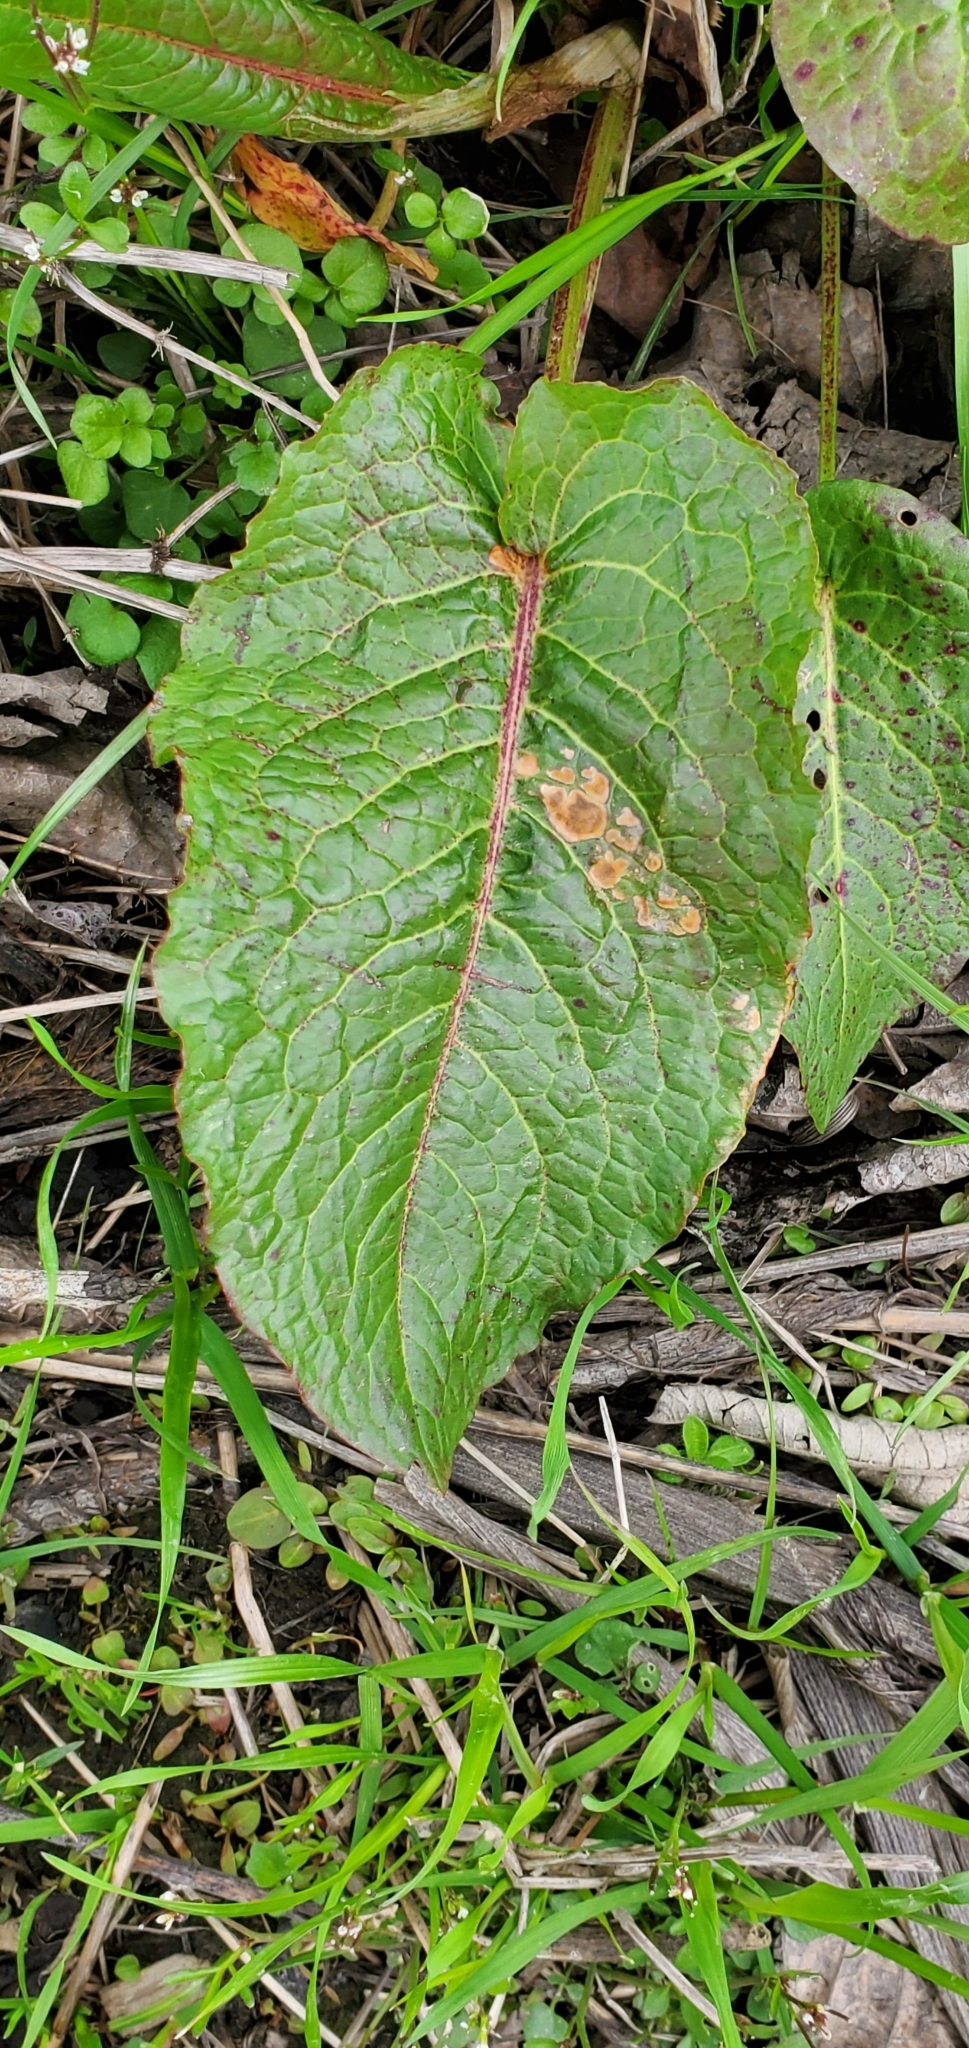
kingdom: Plantae
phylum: Tracheophyta
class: Magnoliopsida
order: Caryophyllales
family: Polygonaceae
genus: Rumex
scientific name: Rumex obtusifolius
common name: Bitter dock
